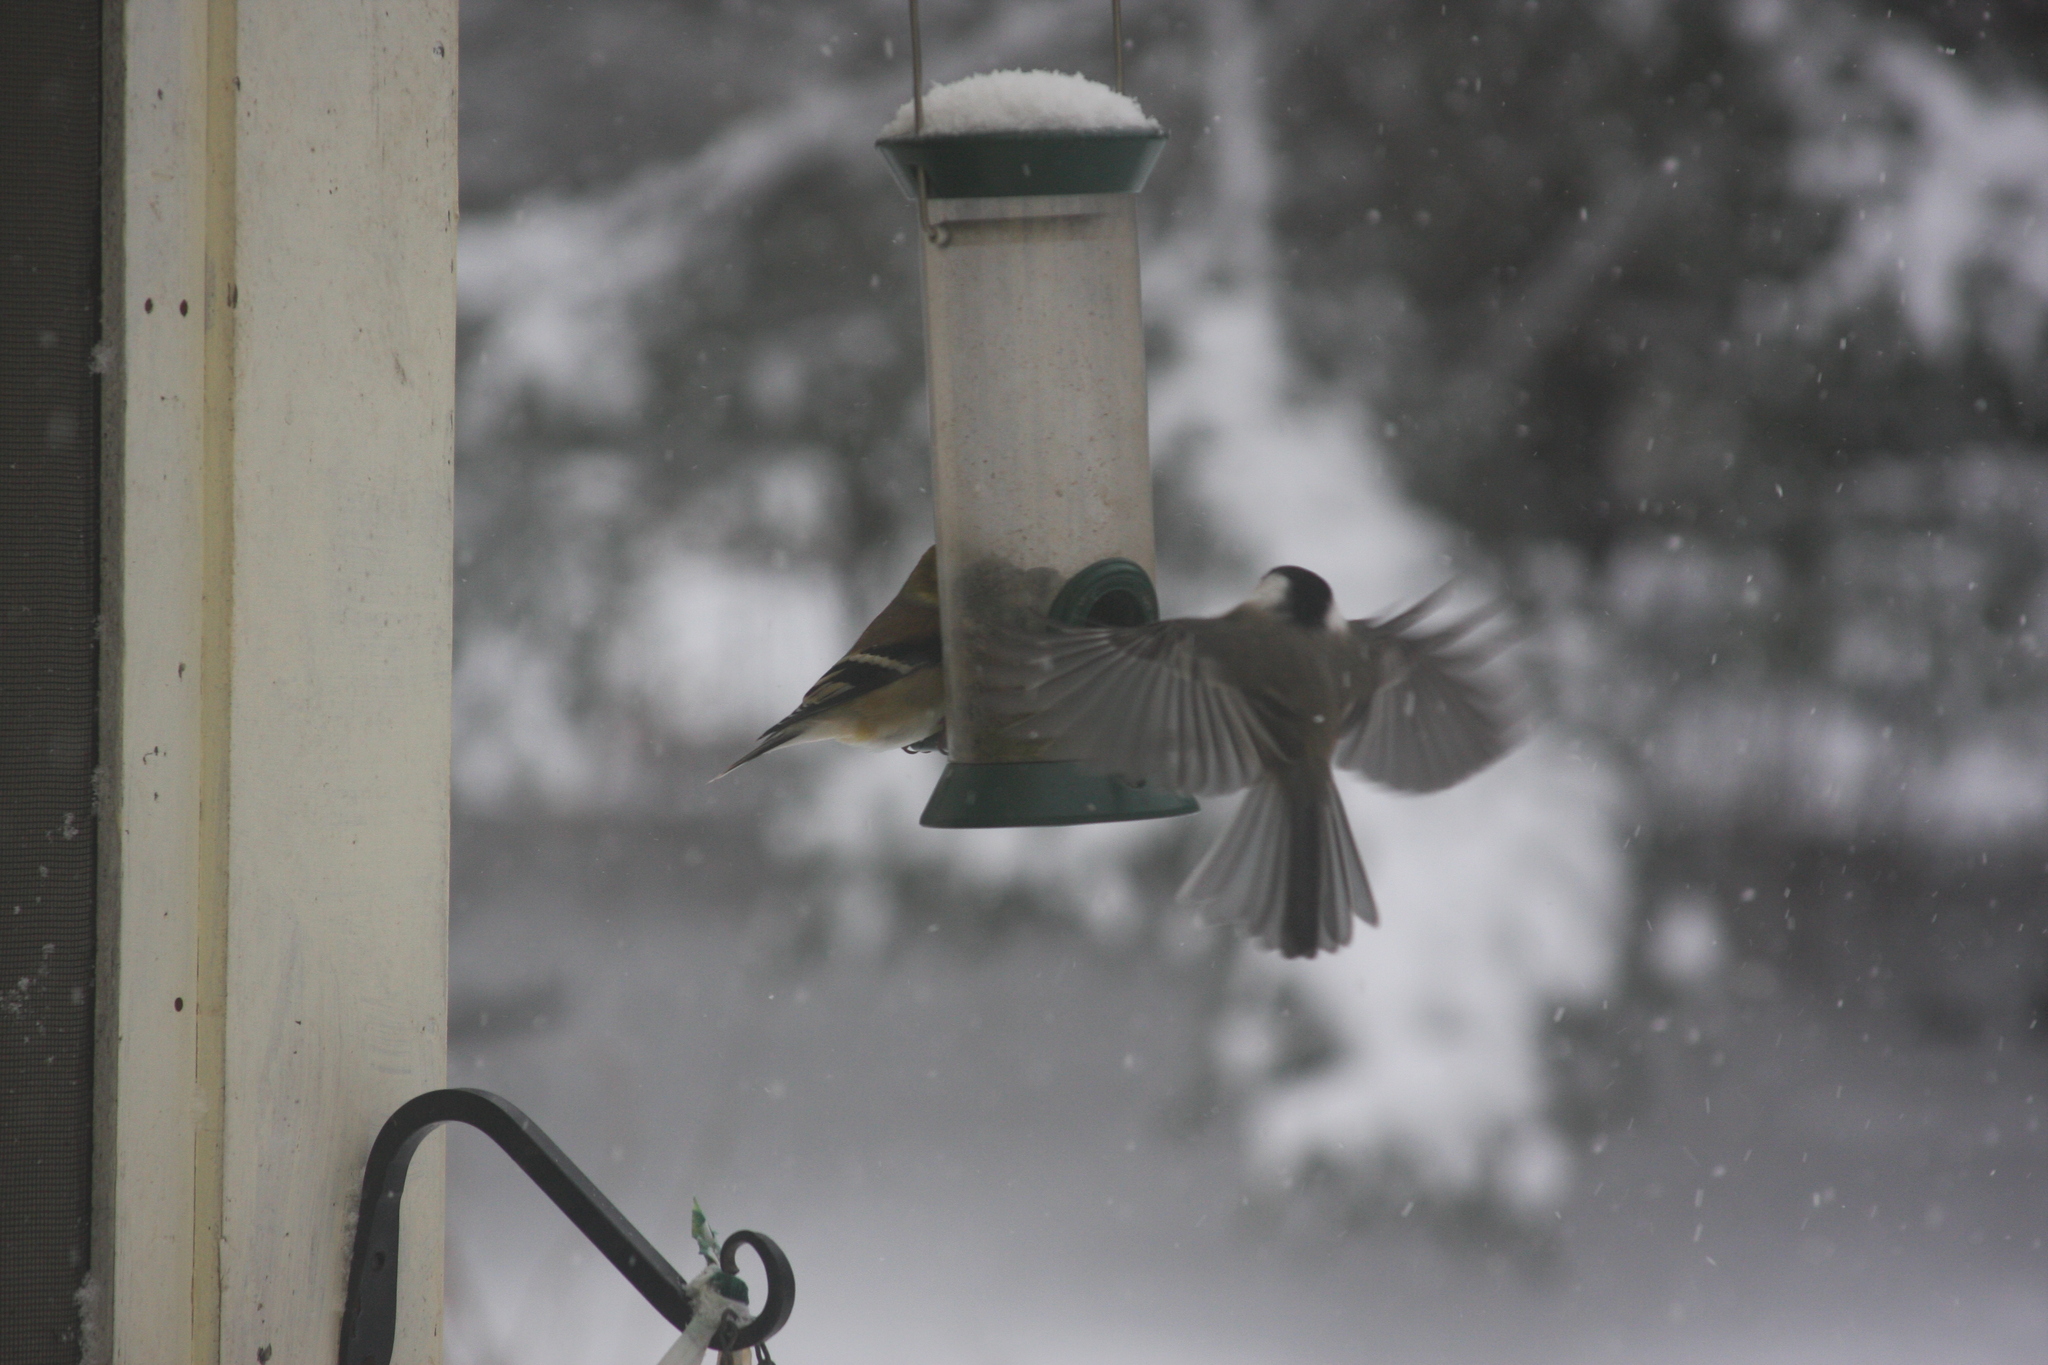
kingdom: Animalia
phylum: Chordata
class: Aves
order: Passeriformes
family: Paridae
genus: Poecile
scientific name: Poecile atricapillus
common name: Black-capped chickadee
